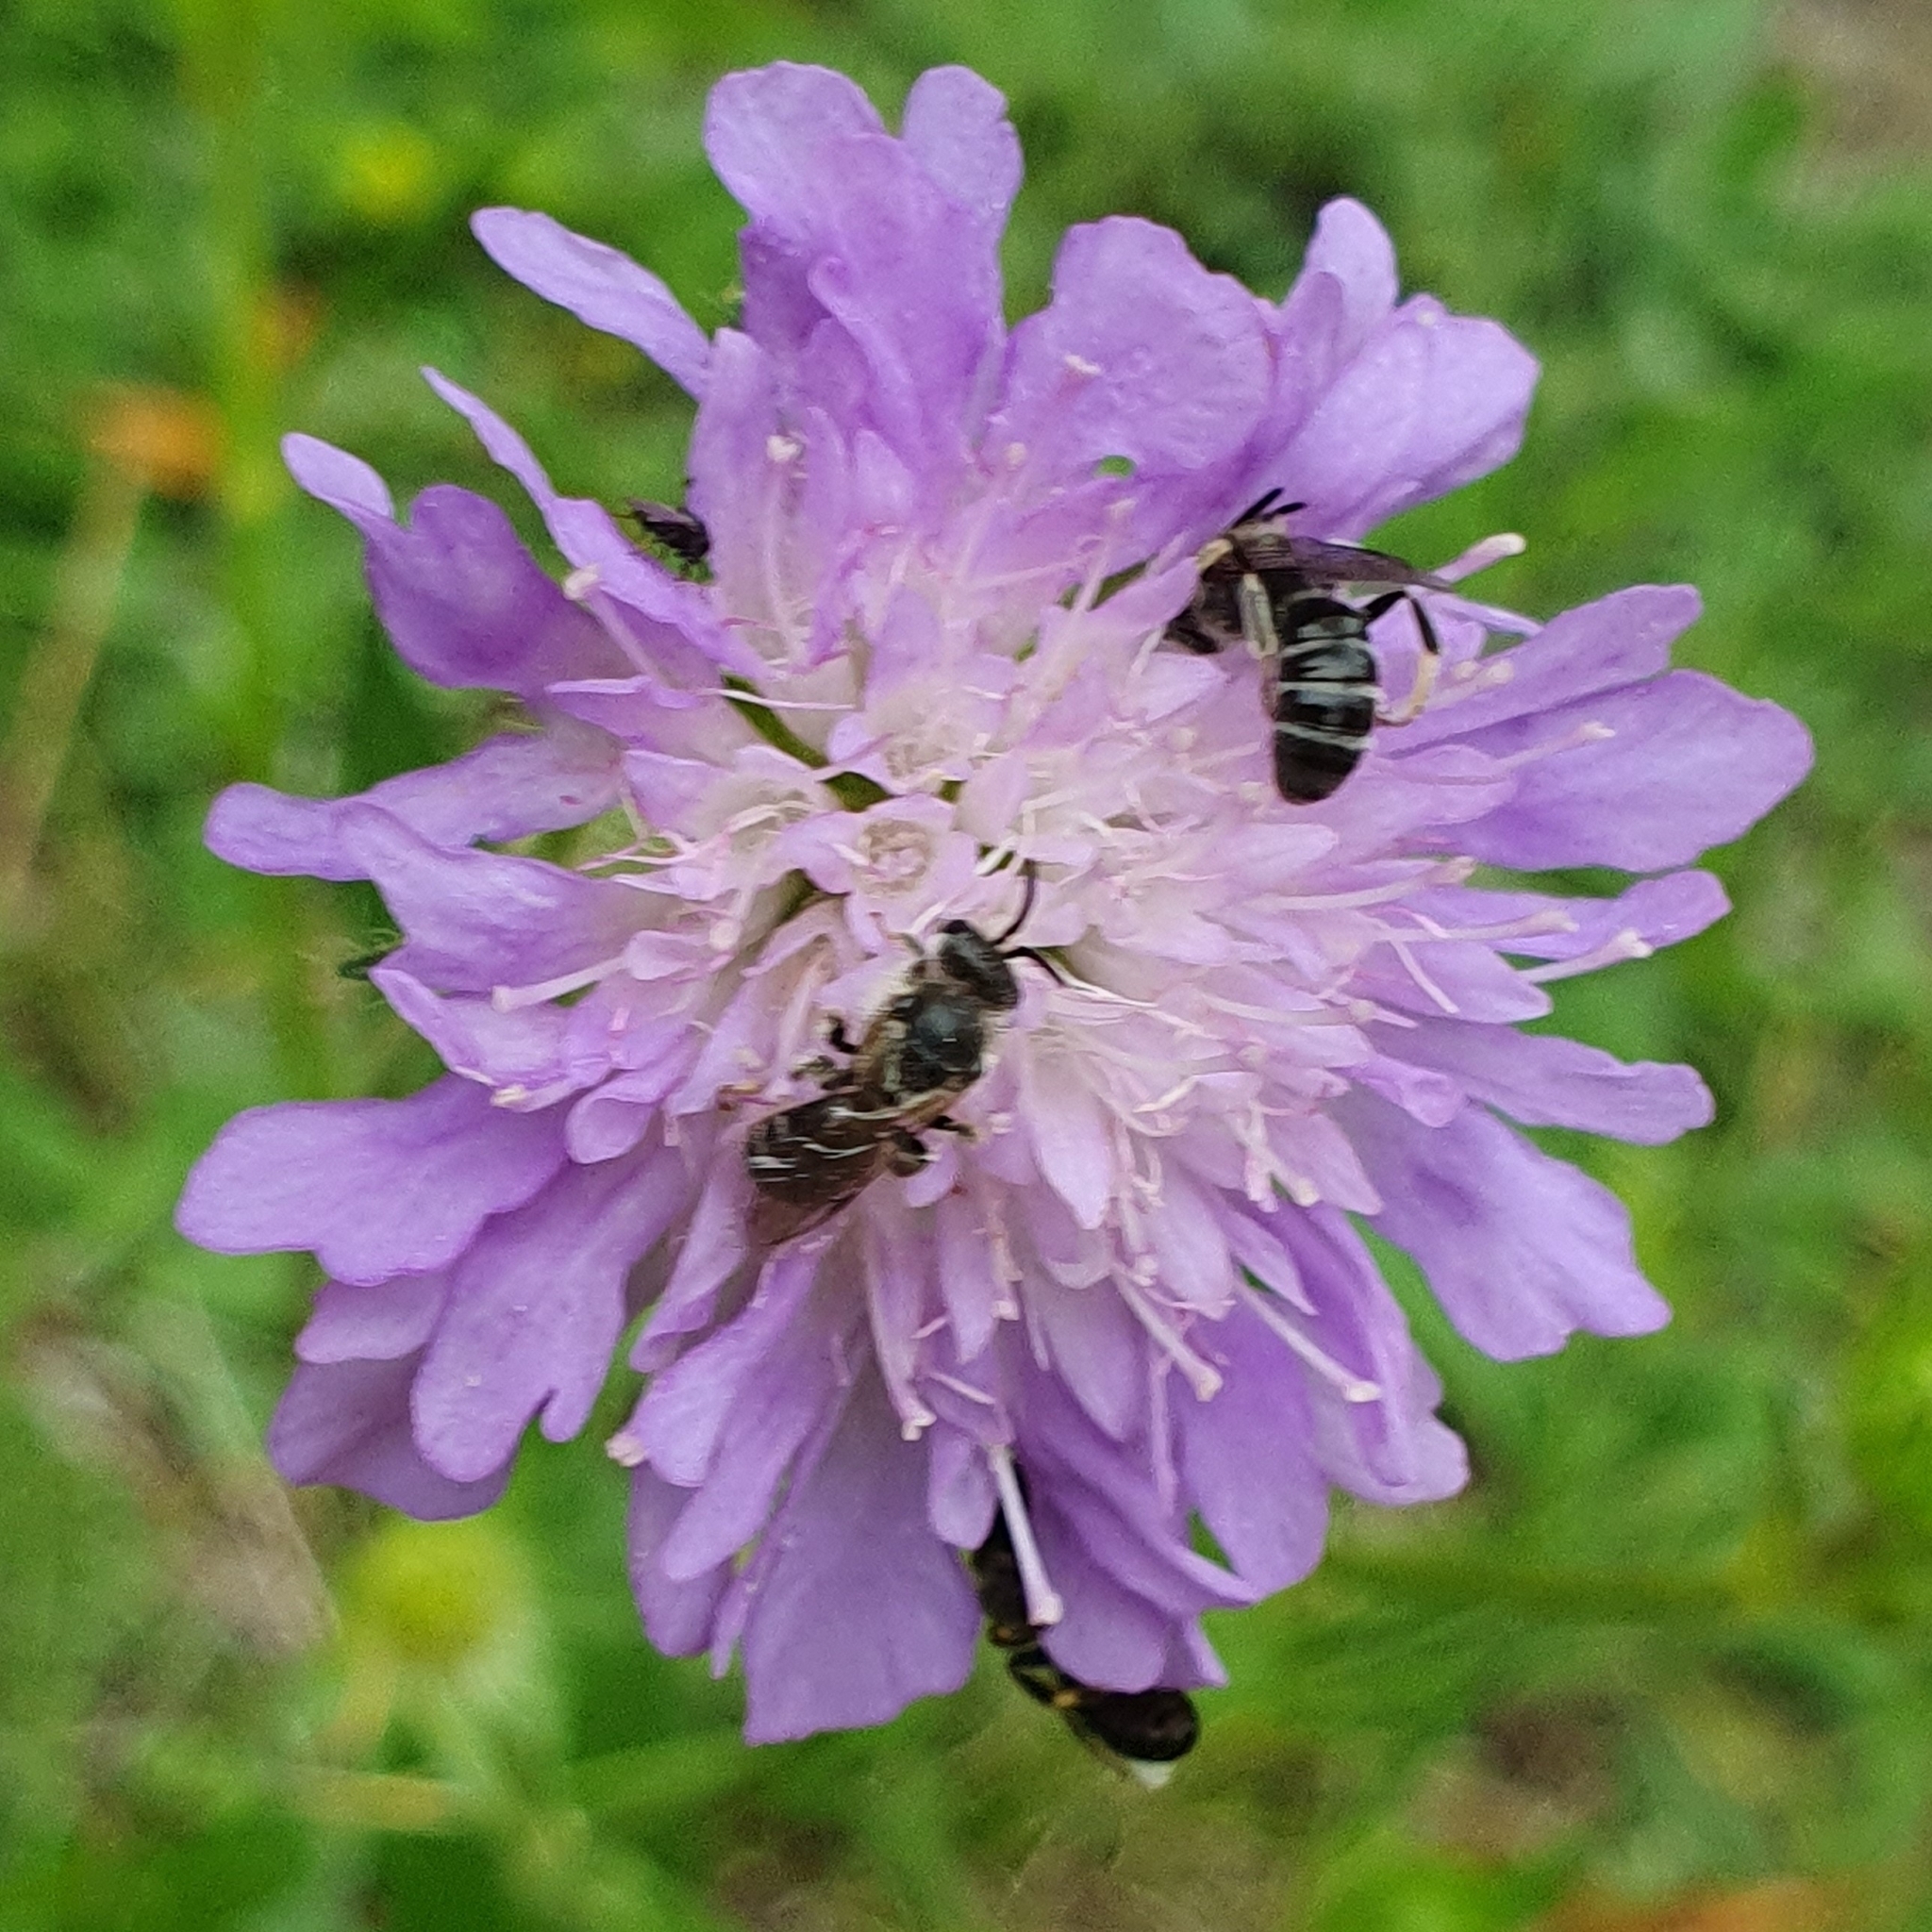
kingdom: Plantae
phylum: Tracheophyta
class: Magnoliopsida
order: Dipsacales
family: Caprifoliaceae
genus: Knautia
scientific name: Knautia arvensis
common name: Field scabiosa
